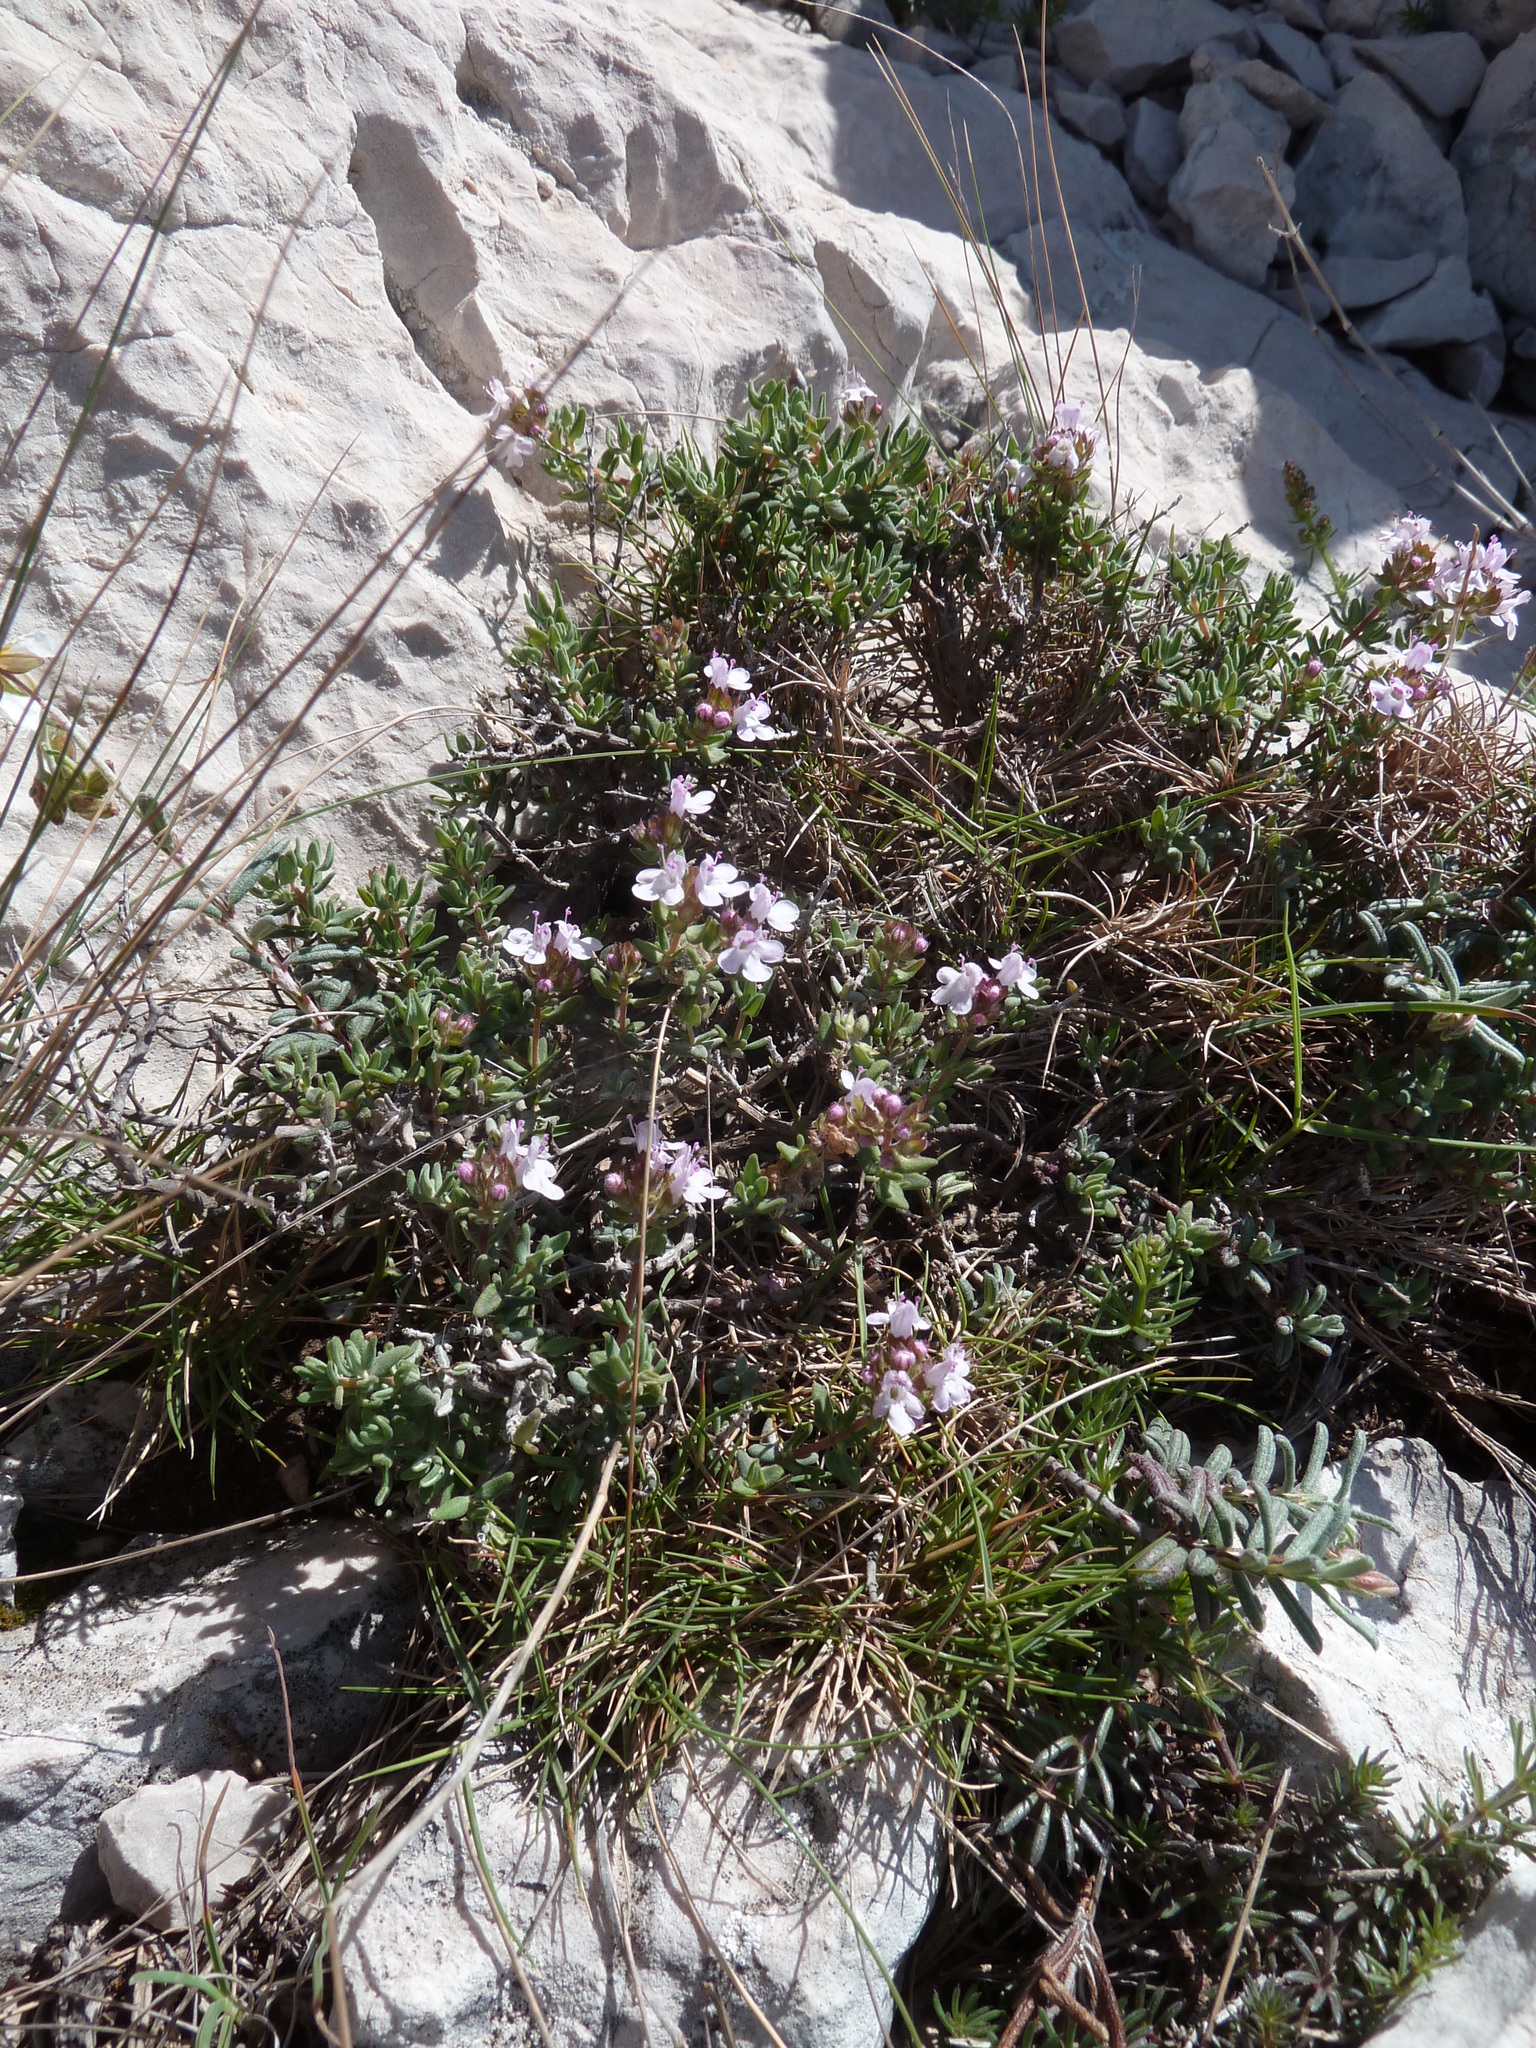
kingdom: Plantae
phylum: Tracheophyta
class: Magnoliopsida
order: Lamiales
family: Lamiaceae
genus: Thymus
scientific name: Thymus vulgaris
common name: Garden thyme
